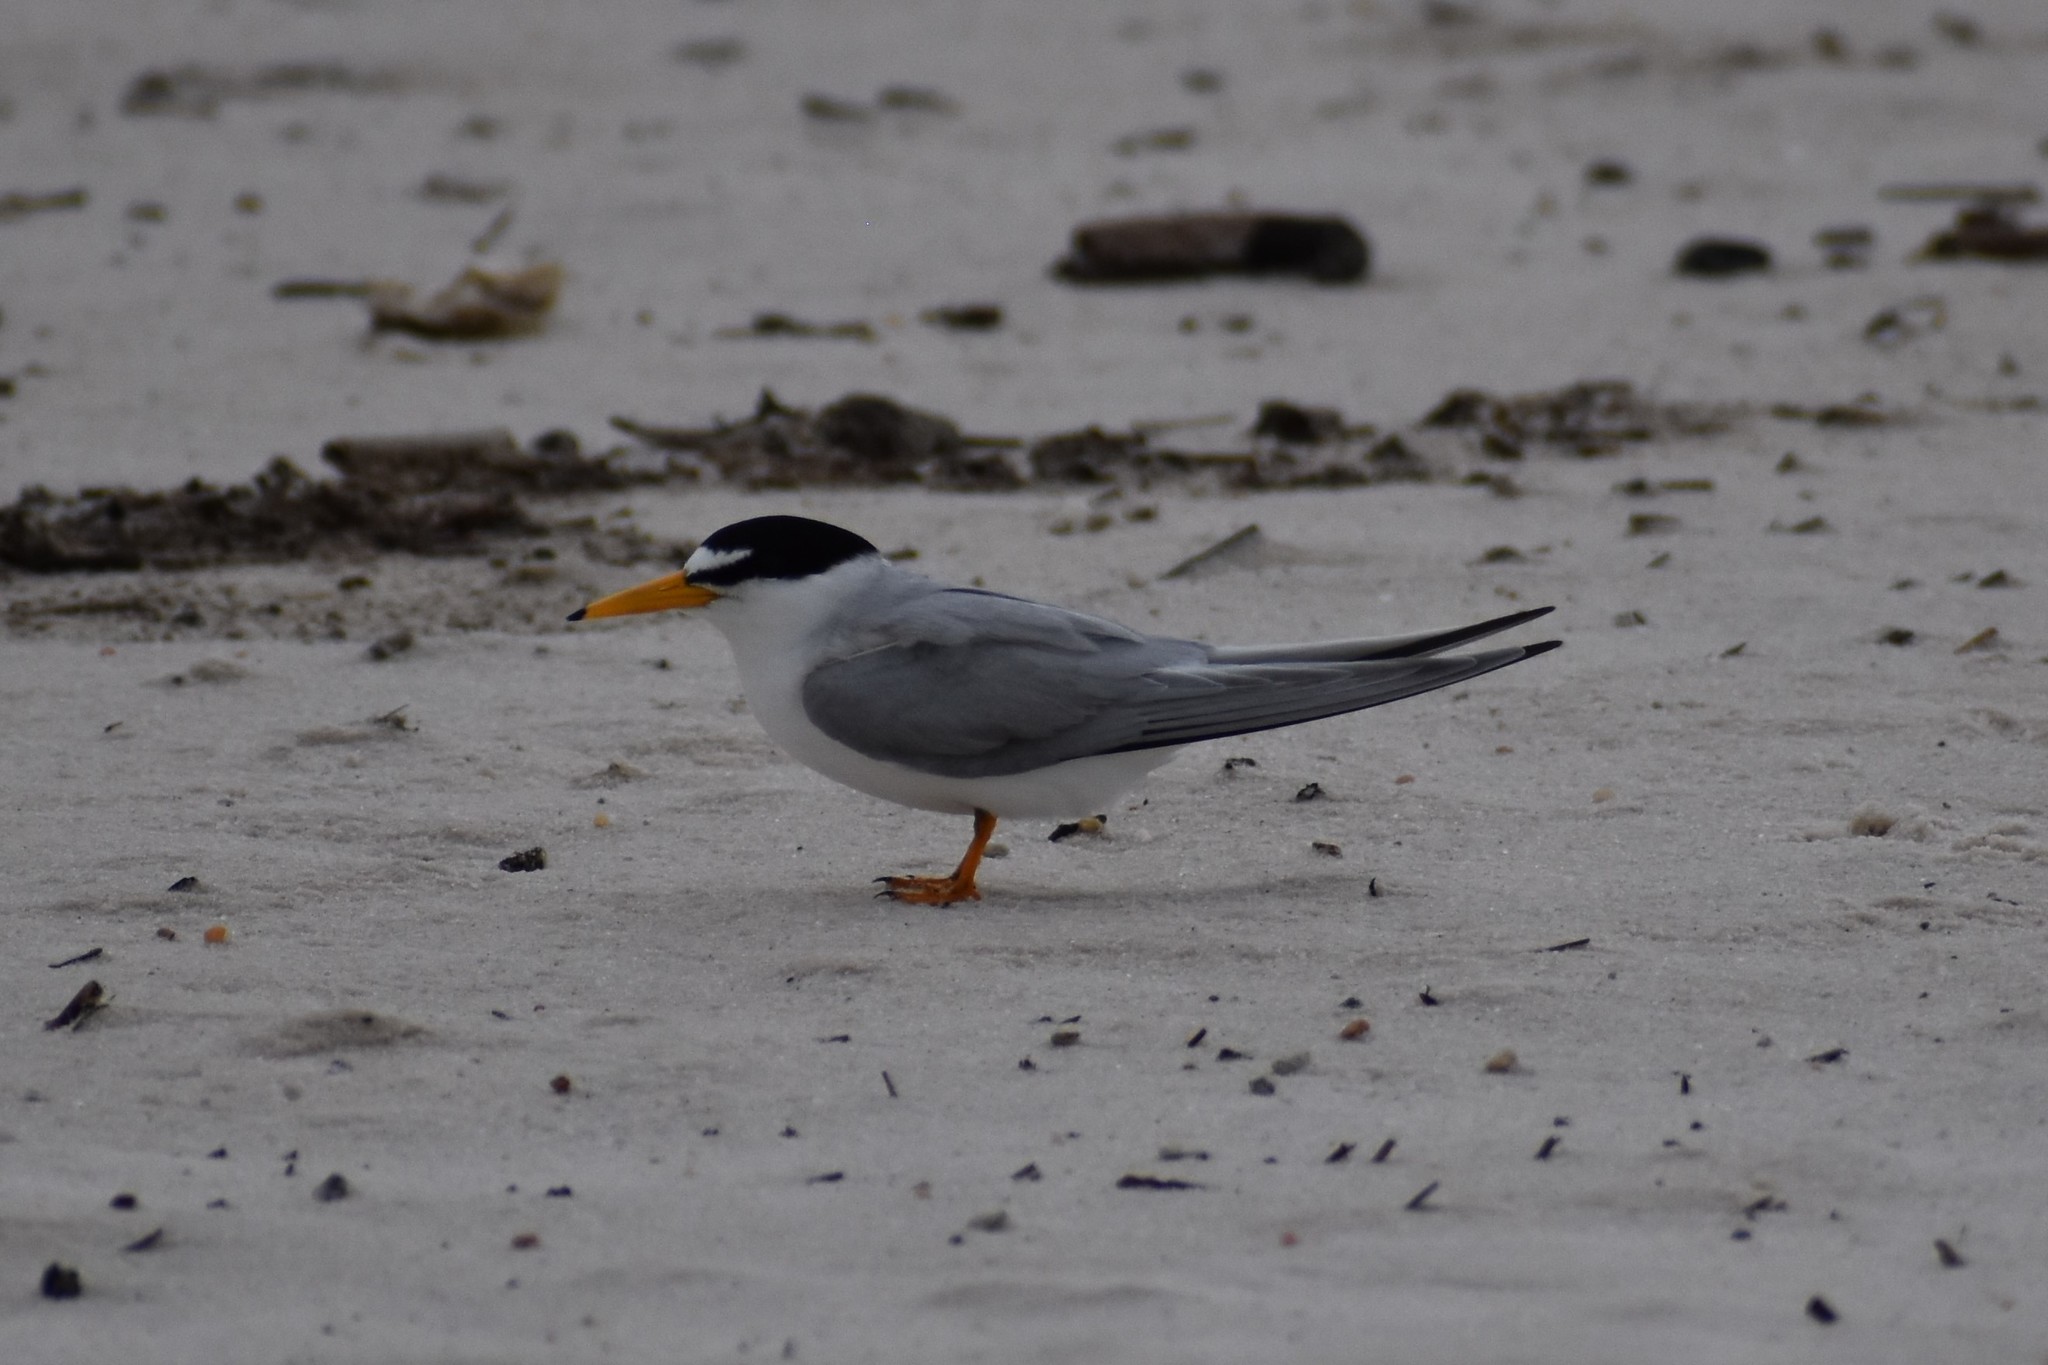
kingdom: Animalia
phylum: Chordata
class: Aves
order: Charadriiformes
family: Laridae
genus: Sternula
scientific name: Sternula antillarum
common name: Least tern
